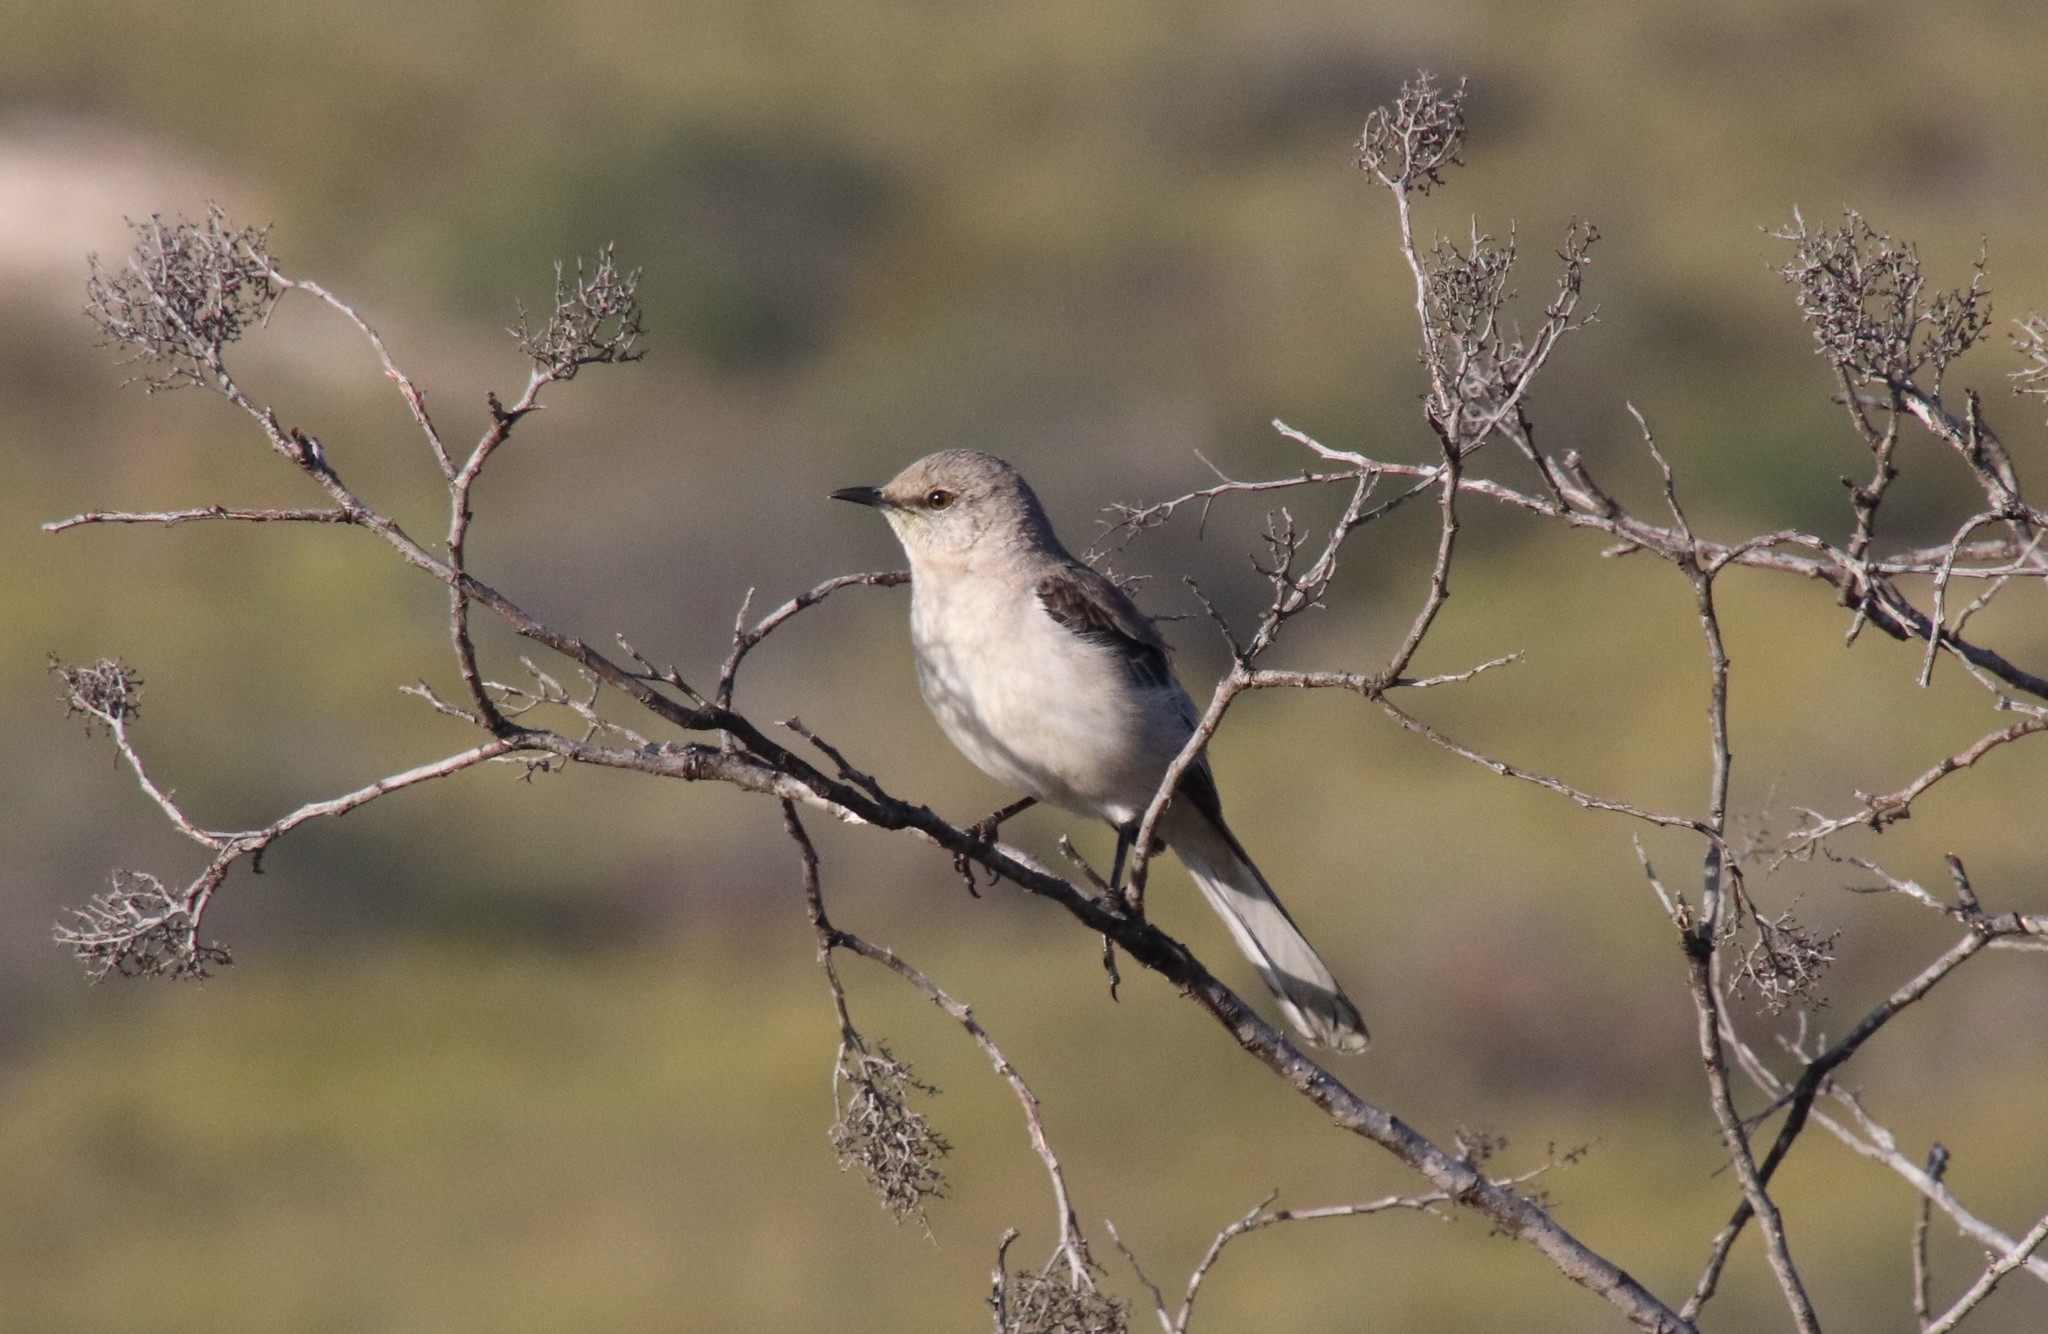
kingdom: Animalia
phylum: Chordata
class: Aves
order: Passeriformes
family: Mimidae
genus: Mimus
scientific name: Mimus polyglottos
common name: Northern mockingbird
